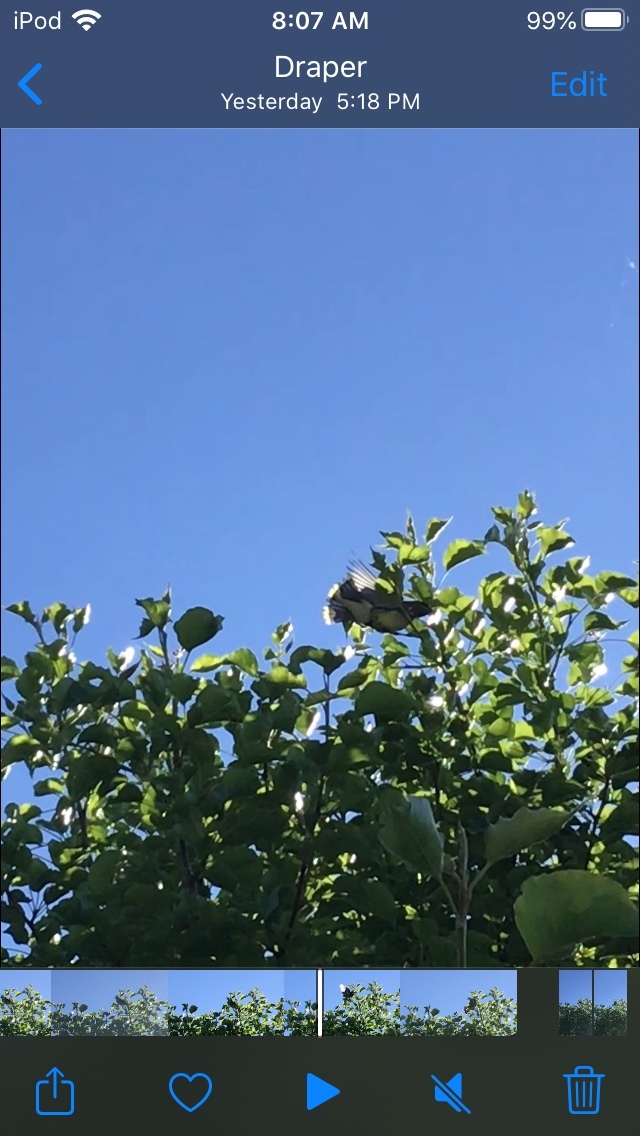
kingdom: Animalia
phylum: Chordata
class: Aves
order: Passeriformes
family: Bombycillidae
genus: Bombycilla
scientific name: Bombycilla cedrorum
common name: Cedar waxwing
